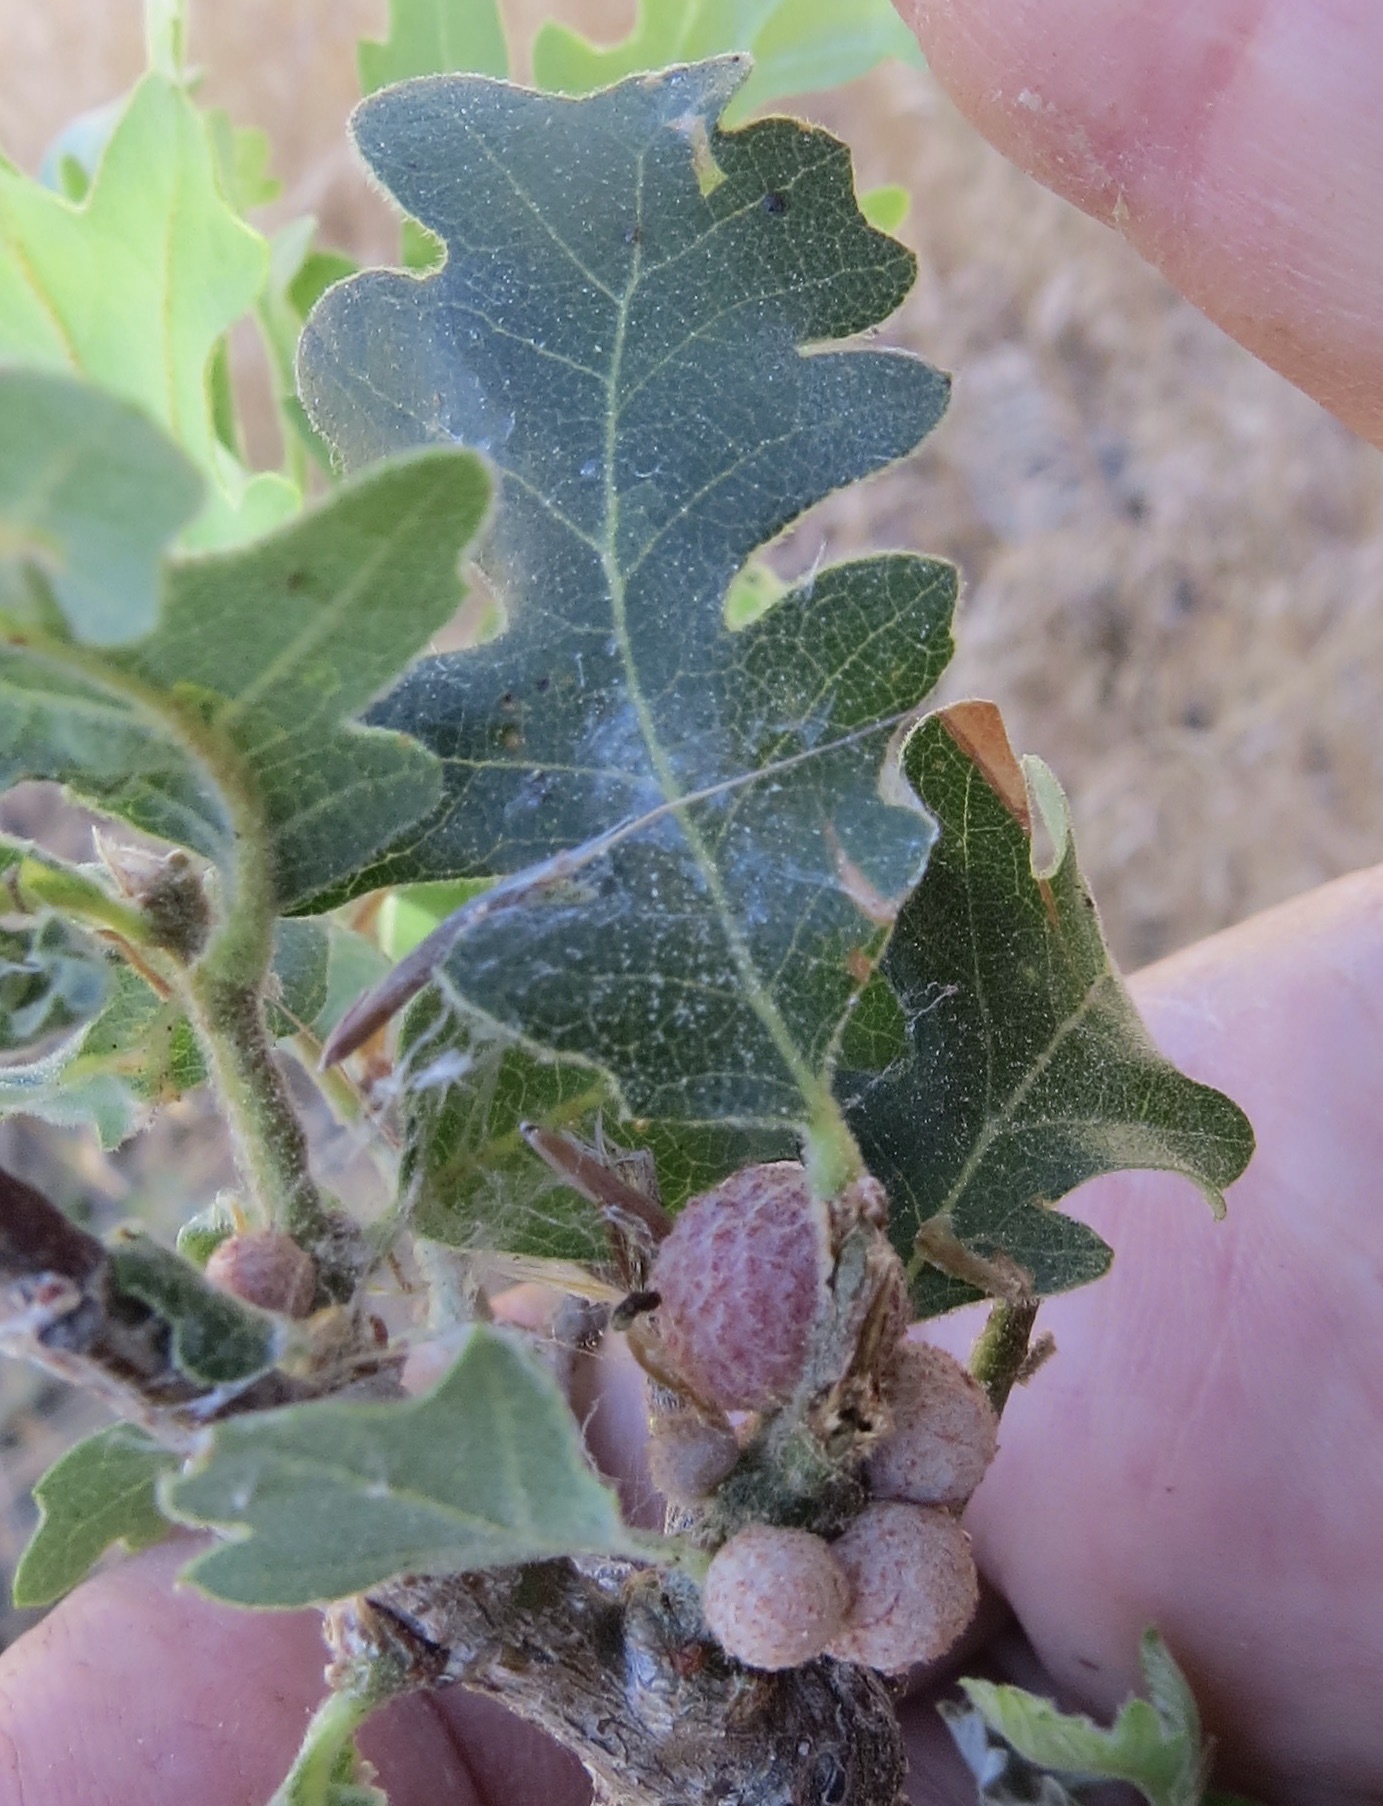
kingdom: Animalia
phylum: Arthropoda
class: Insecta
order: Hymenoptera
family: Cynipidae
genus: Cynips
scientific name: Cynips conspicua
